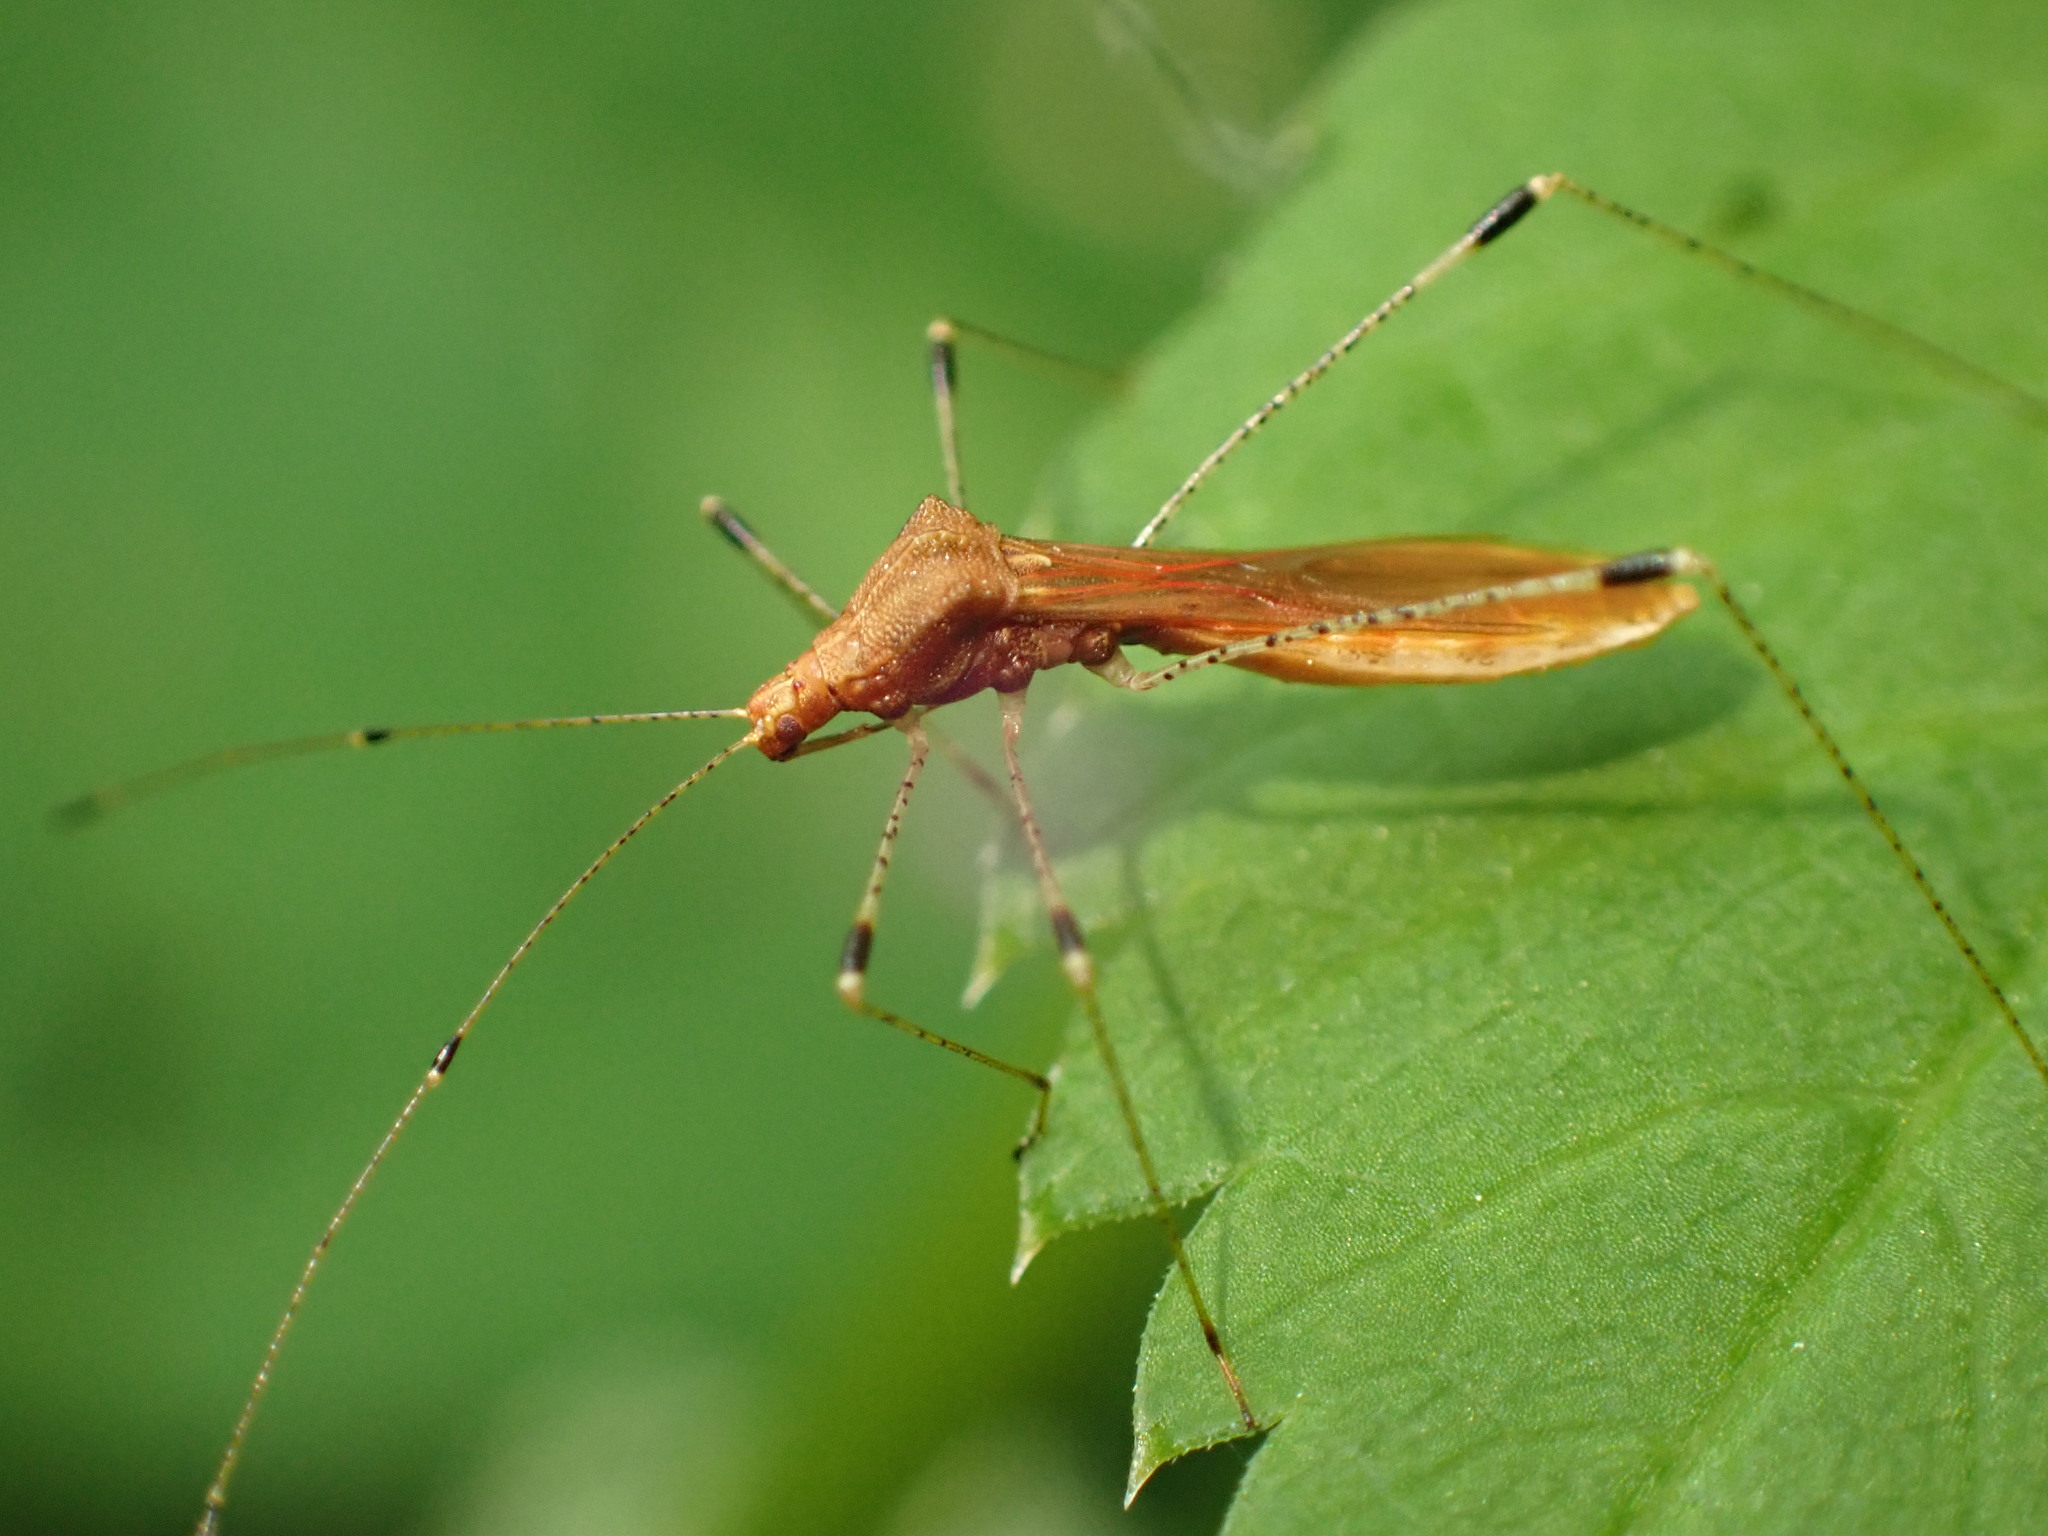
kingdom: Animalia
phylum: Arthropoda
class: Insecta
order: Hemiptera
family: Berytidae
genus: Metatropis
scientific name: Metatropis rufescens
